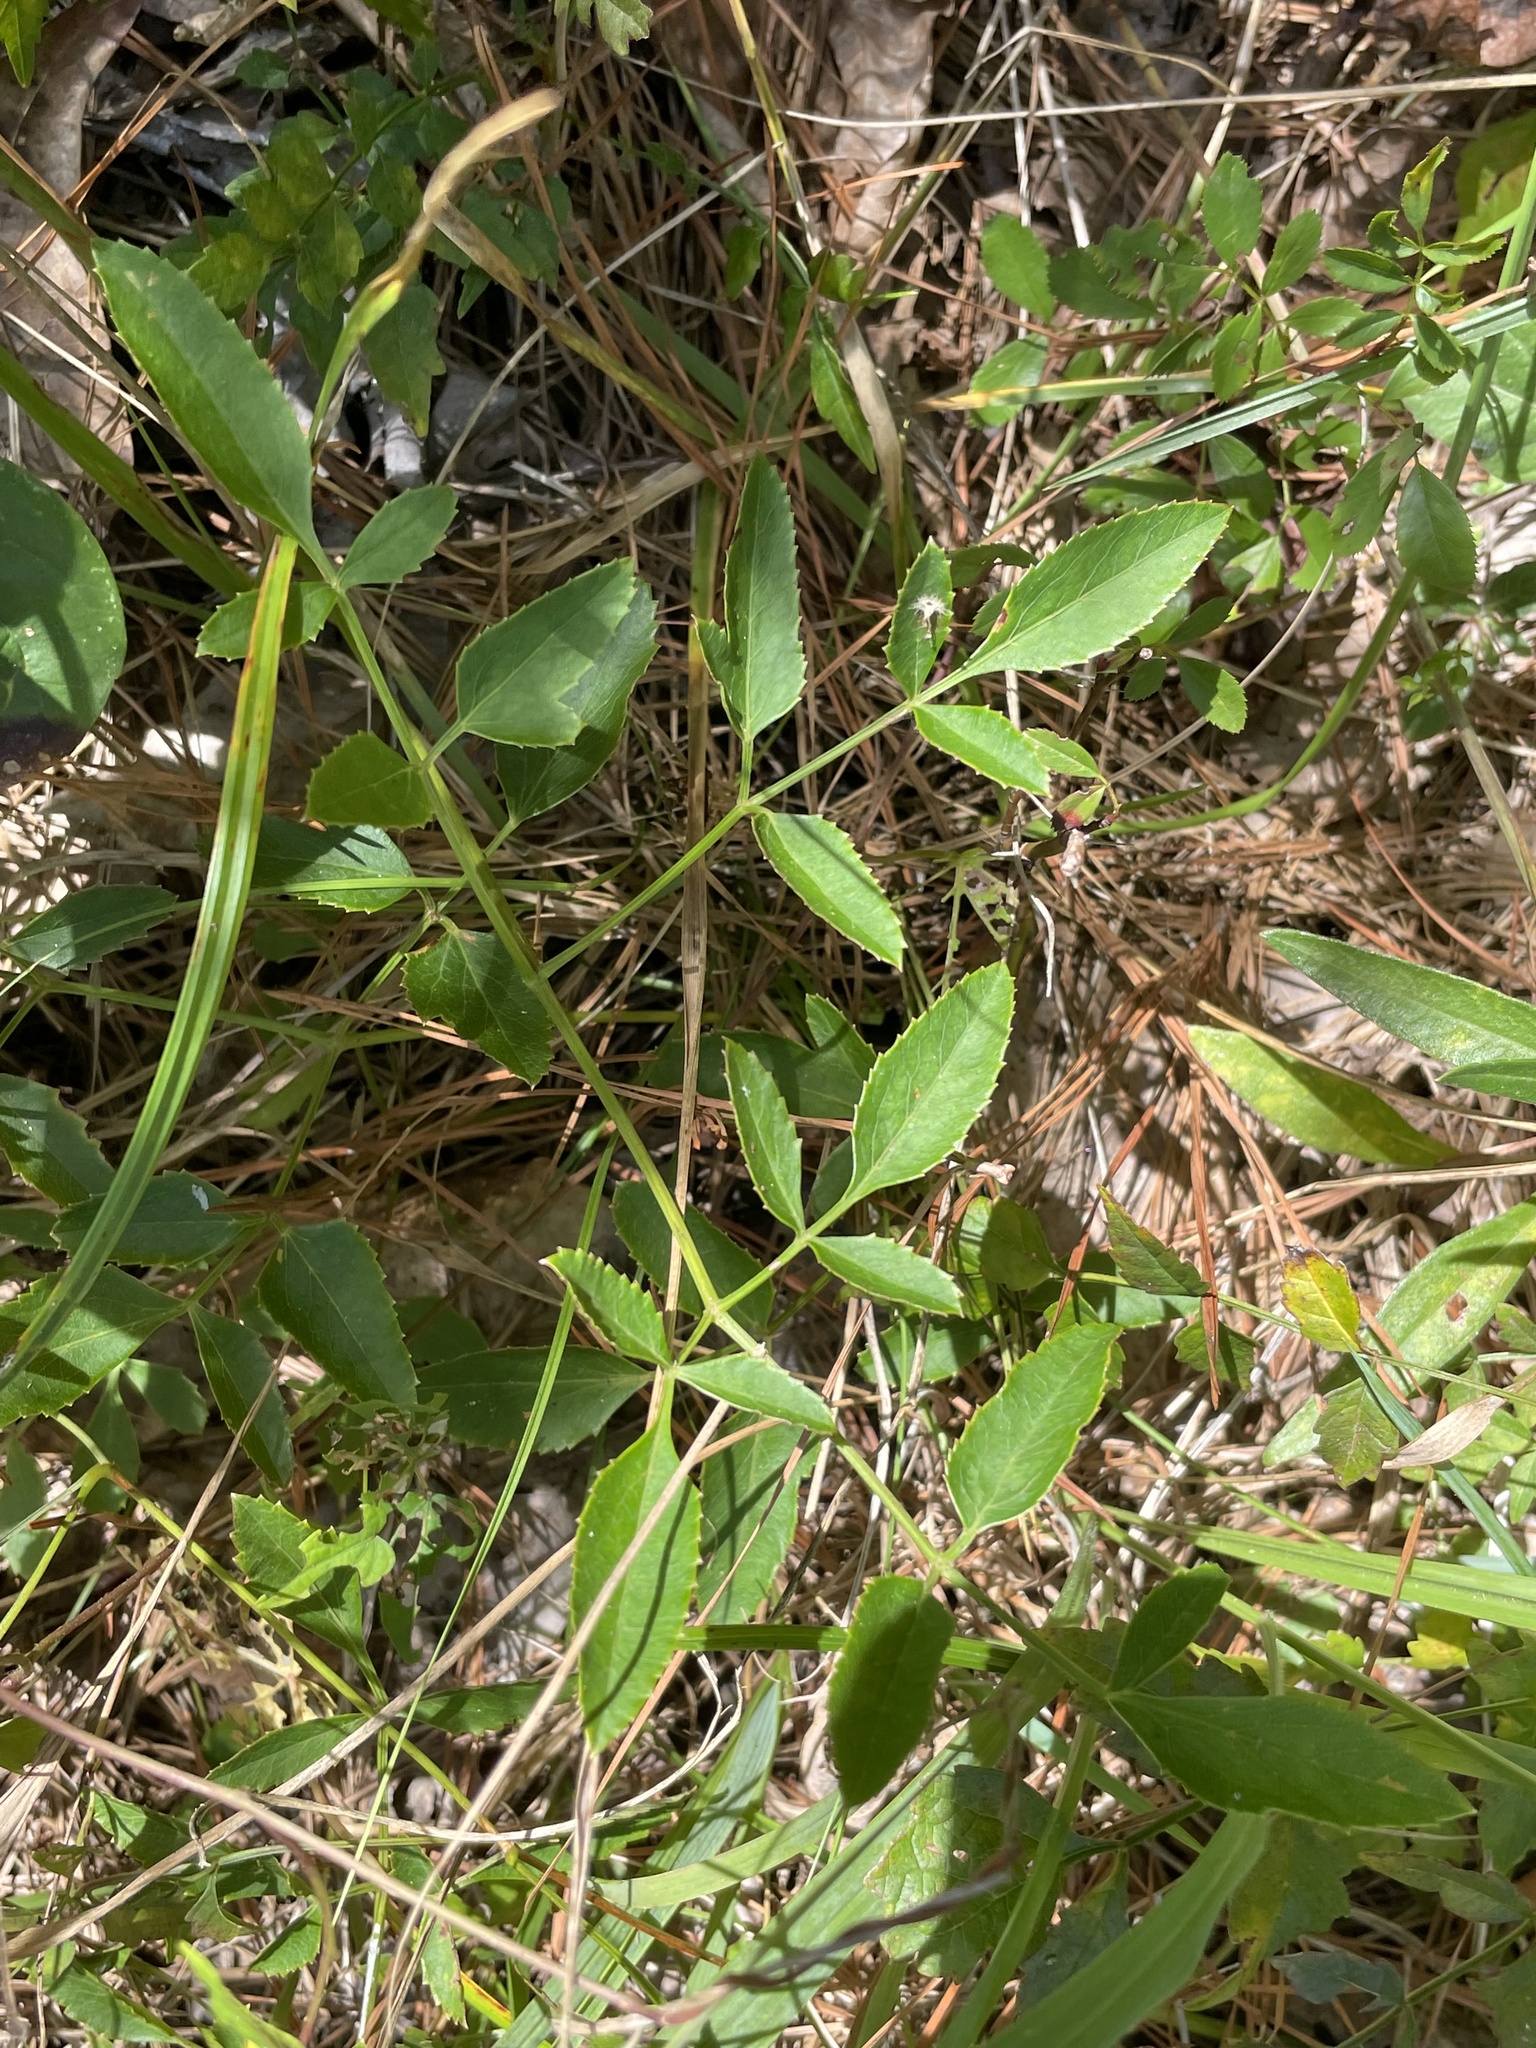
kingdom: Plantae
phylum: Tracheophyta
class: Magnoliopsida
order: Apiales
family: Apiaceae
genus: Angelica
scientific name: Angelica venenosa
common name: Hairy angelica
